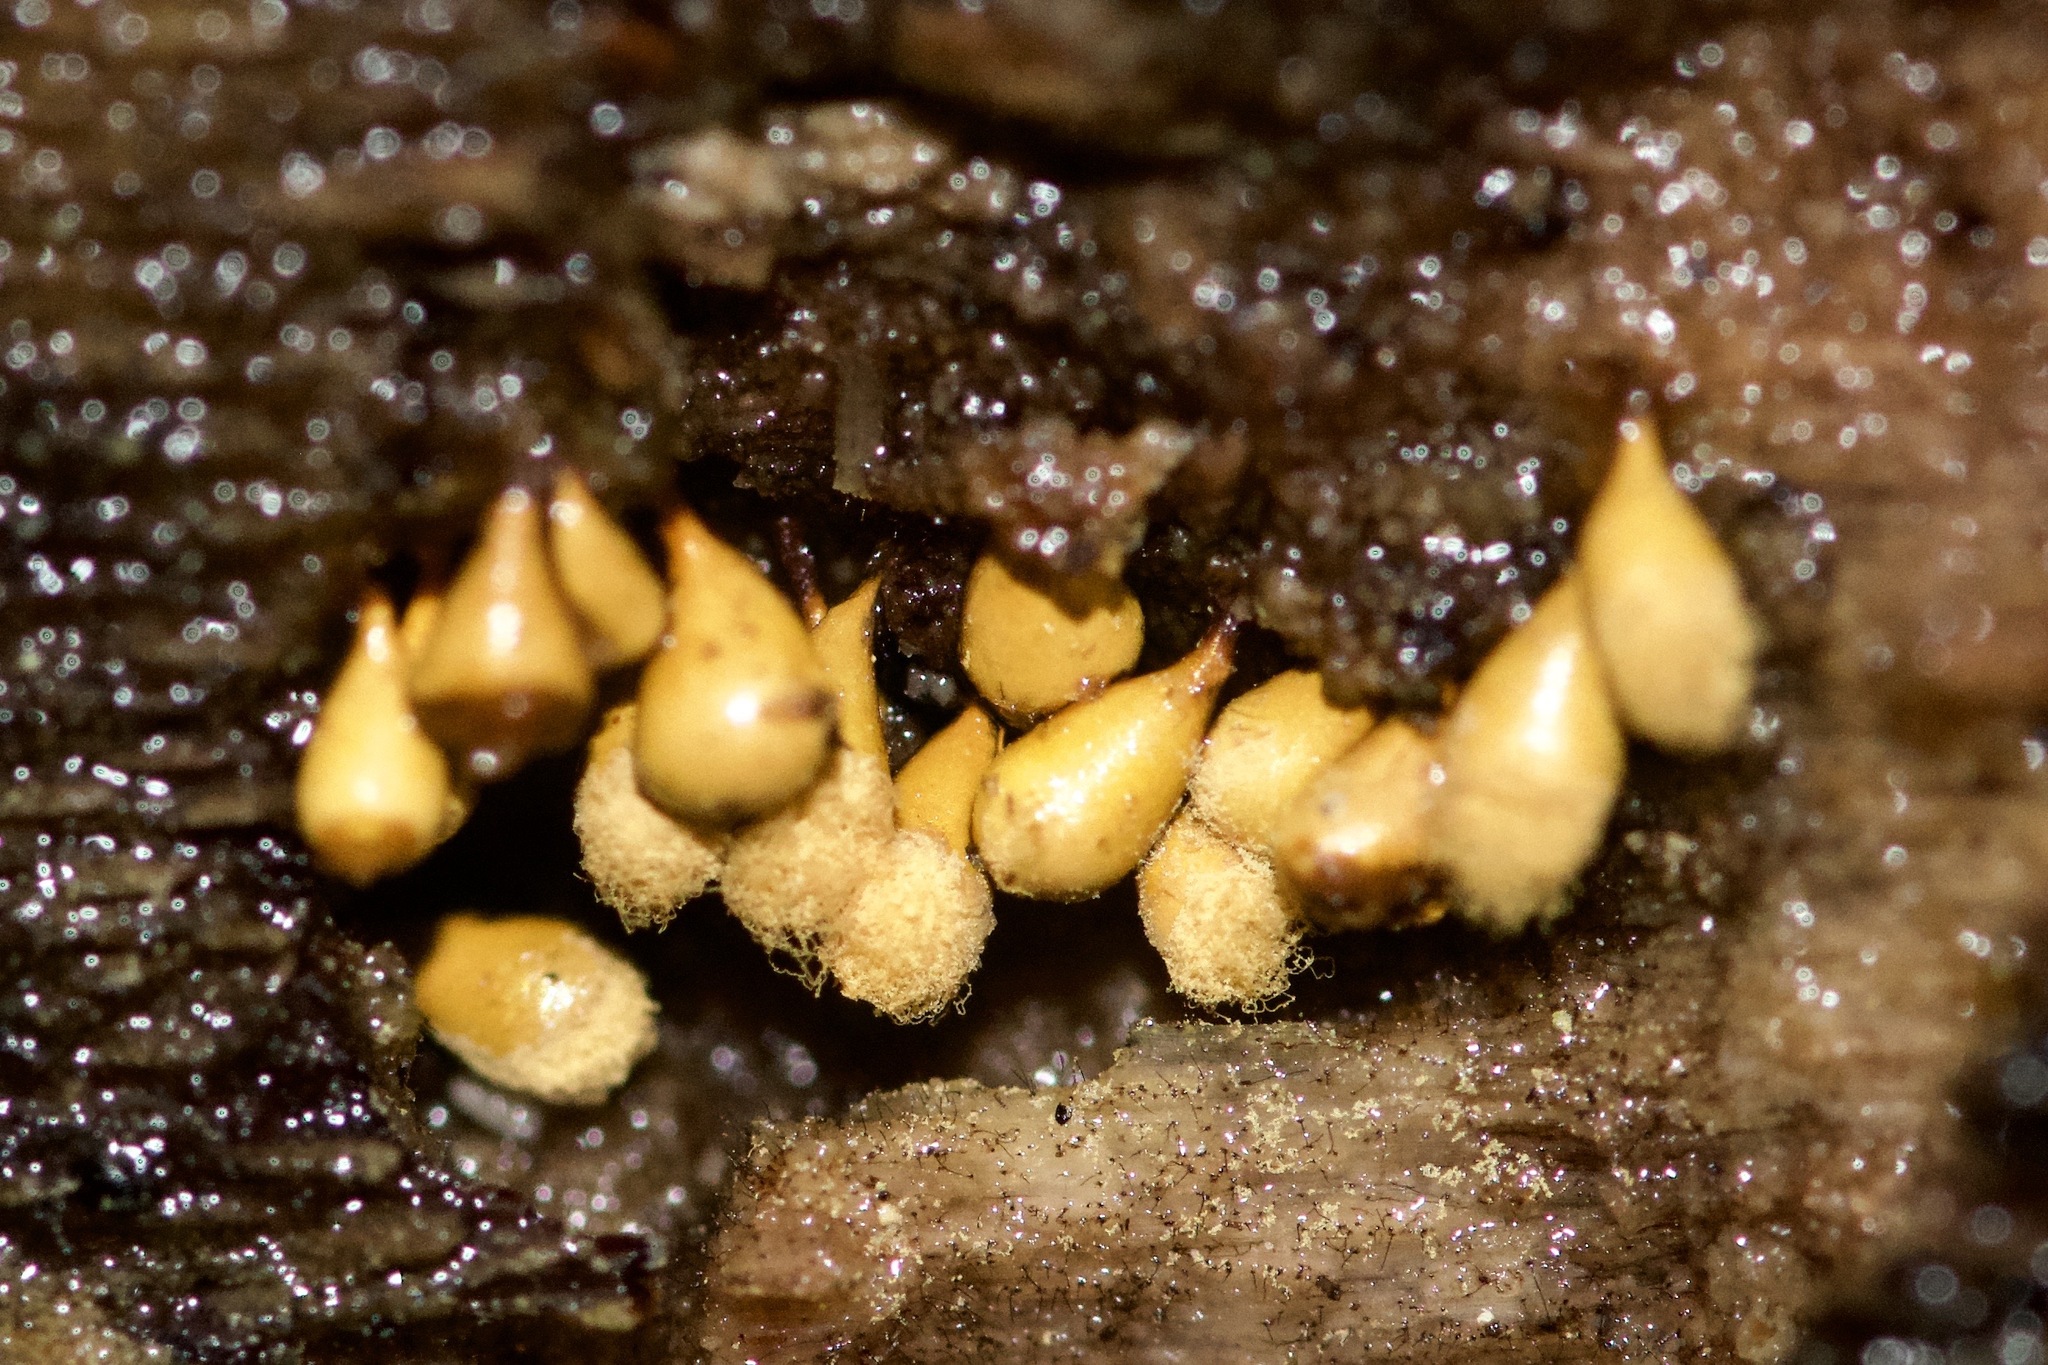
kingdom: Protozoa
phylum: Mycetozoa
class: Myxomycetes
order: Trichiales
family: Arcyriaceae
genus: Hemitrichia
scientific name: Hemitrichia clavata
